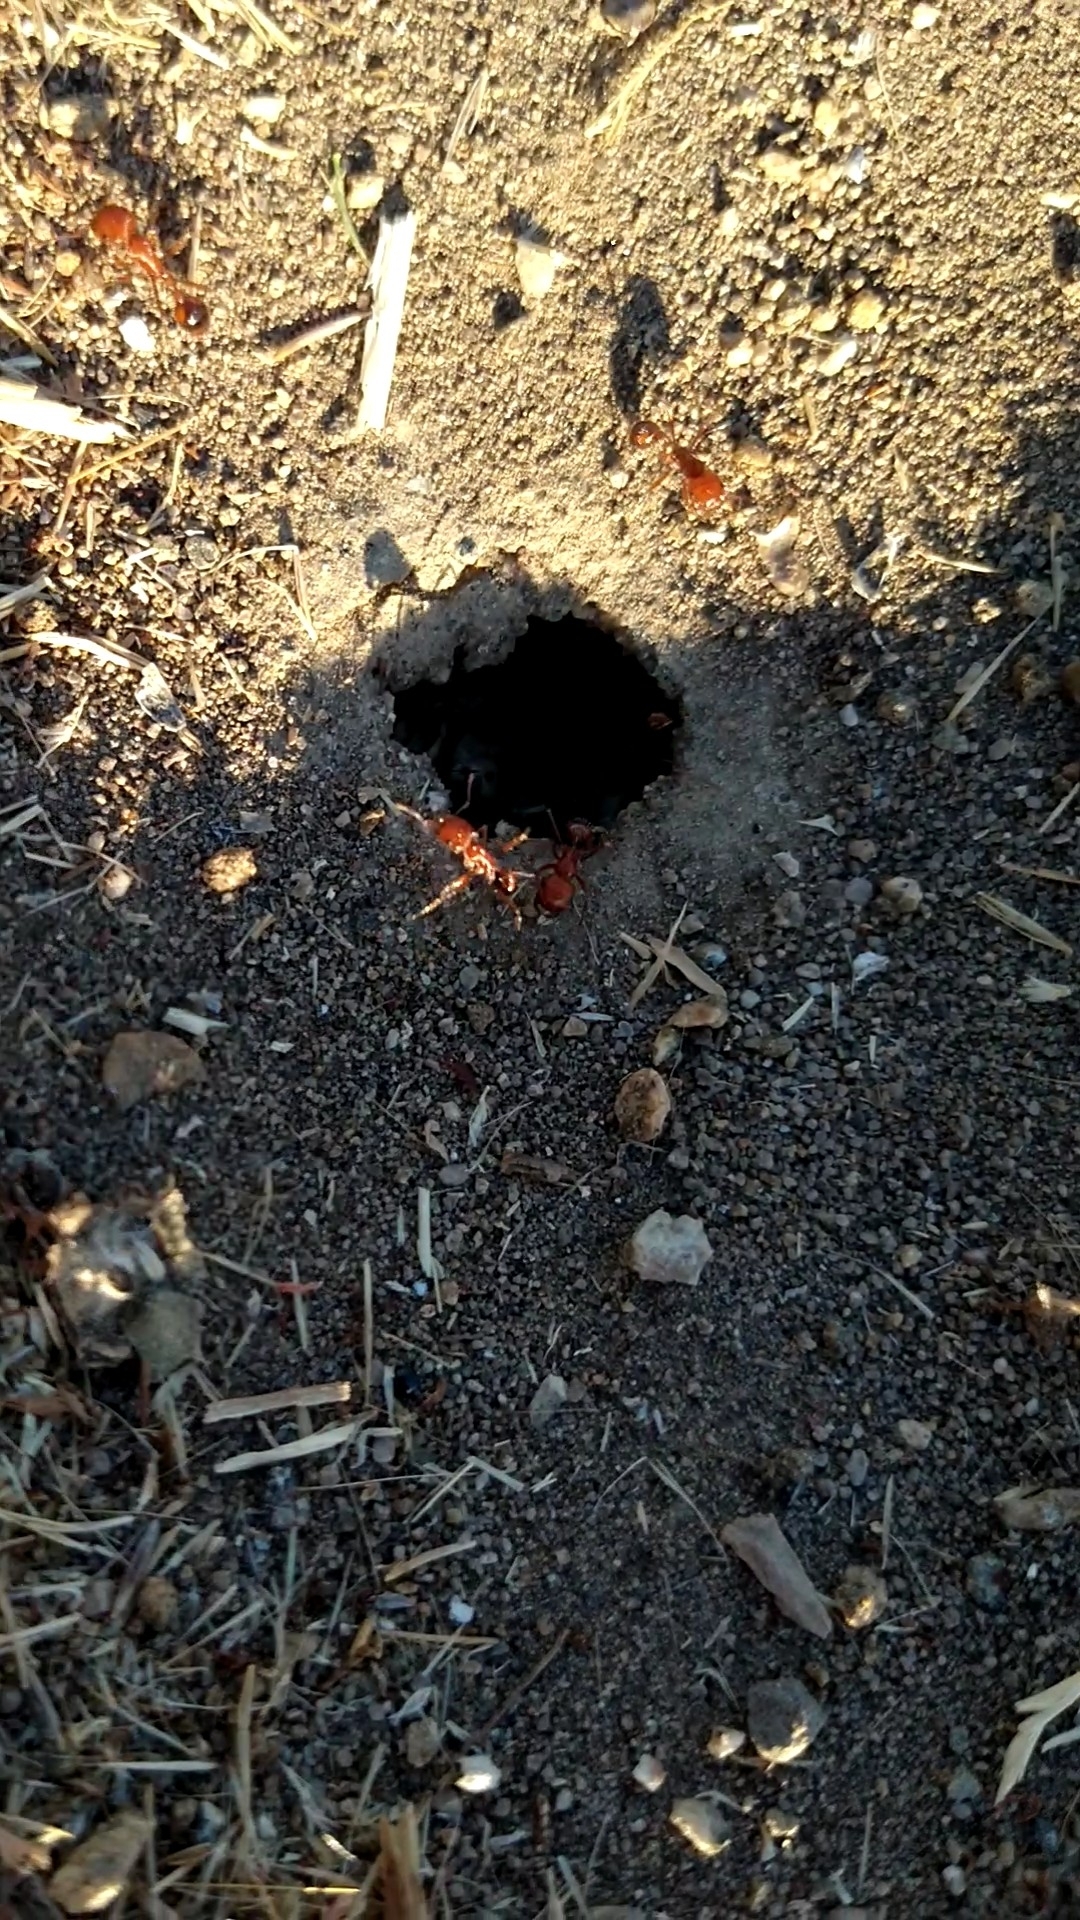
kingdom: Animalia
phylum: Arthropoda
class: Insecta
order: Hymenoptera
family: Formicidae
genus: Pogonomyrmex
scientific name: Pogonomyrmex
